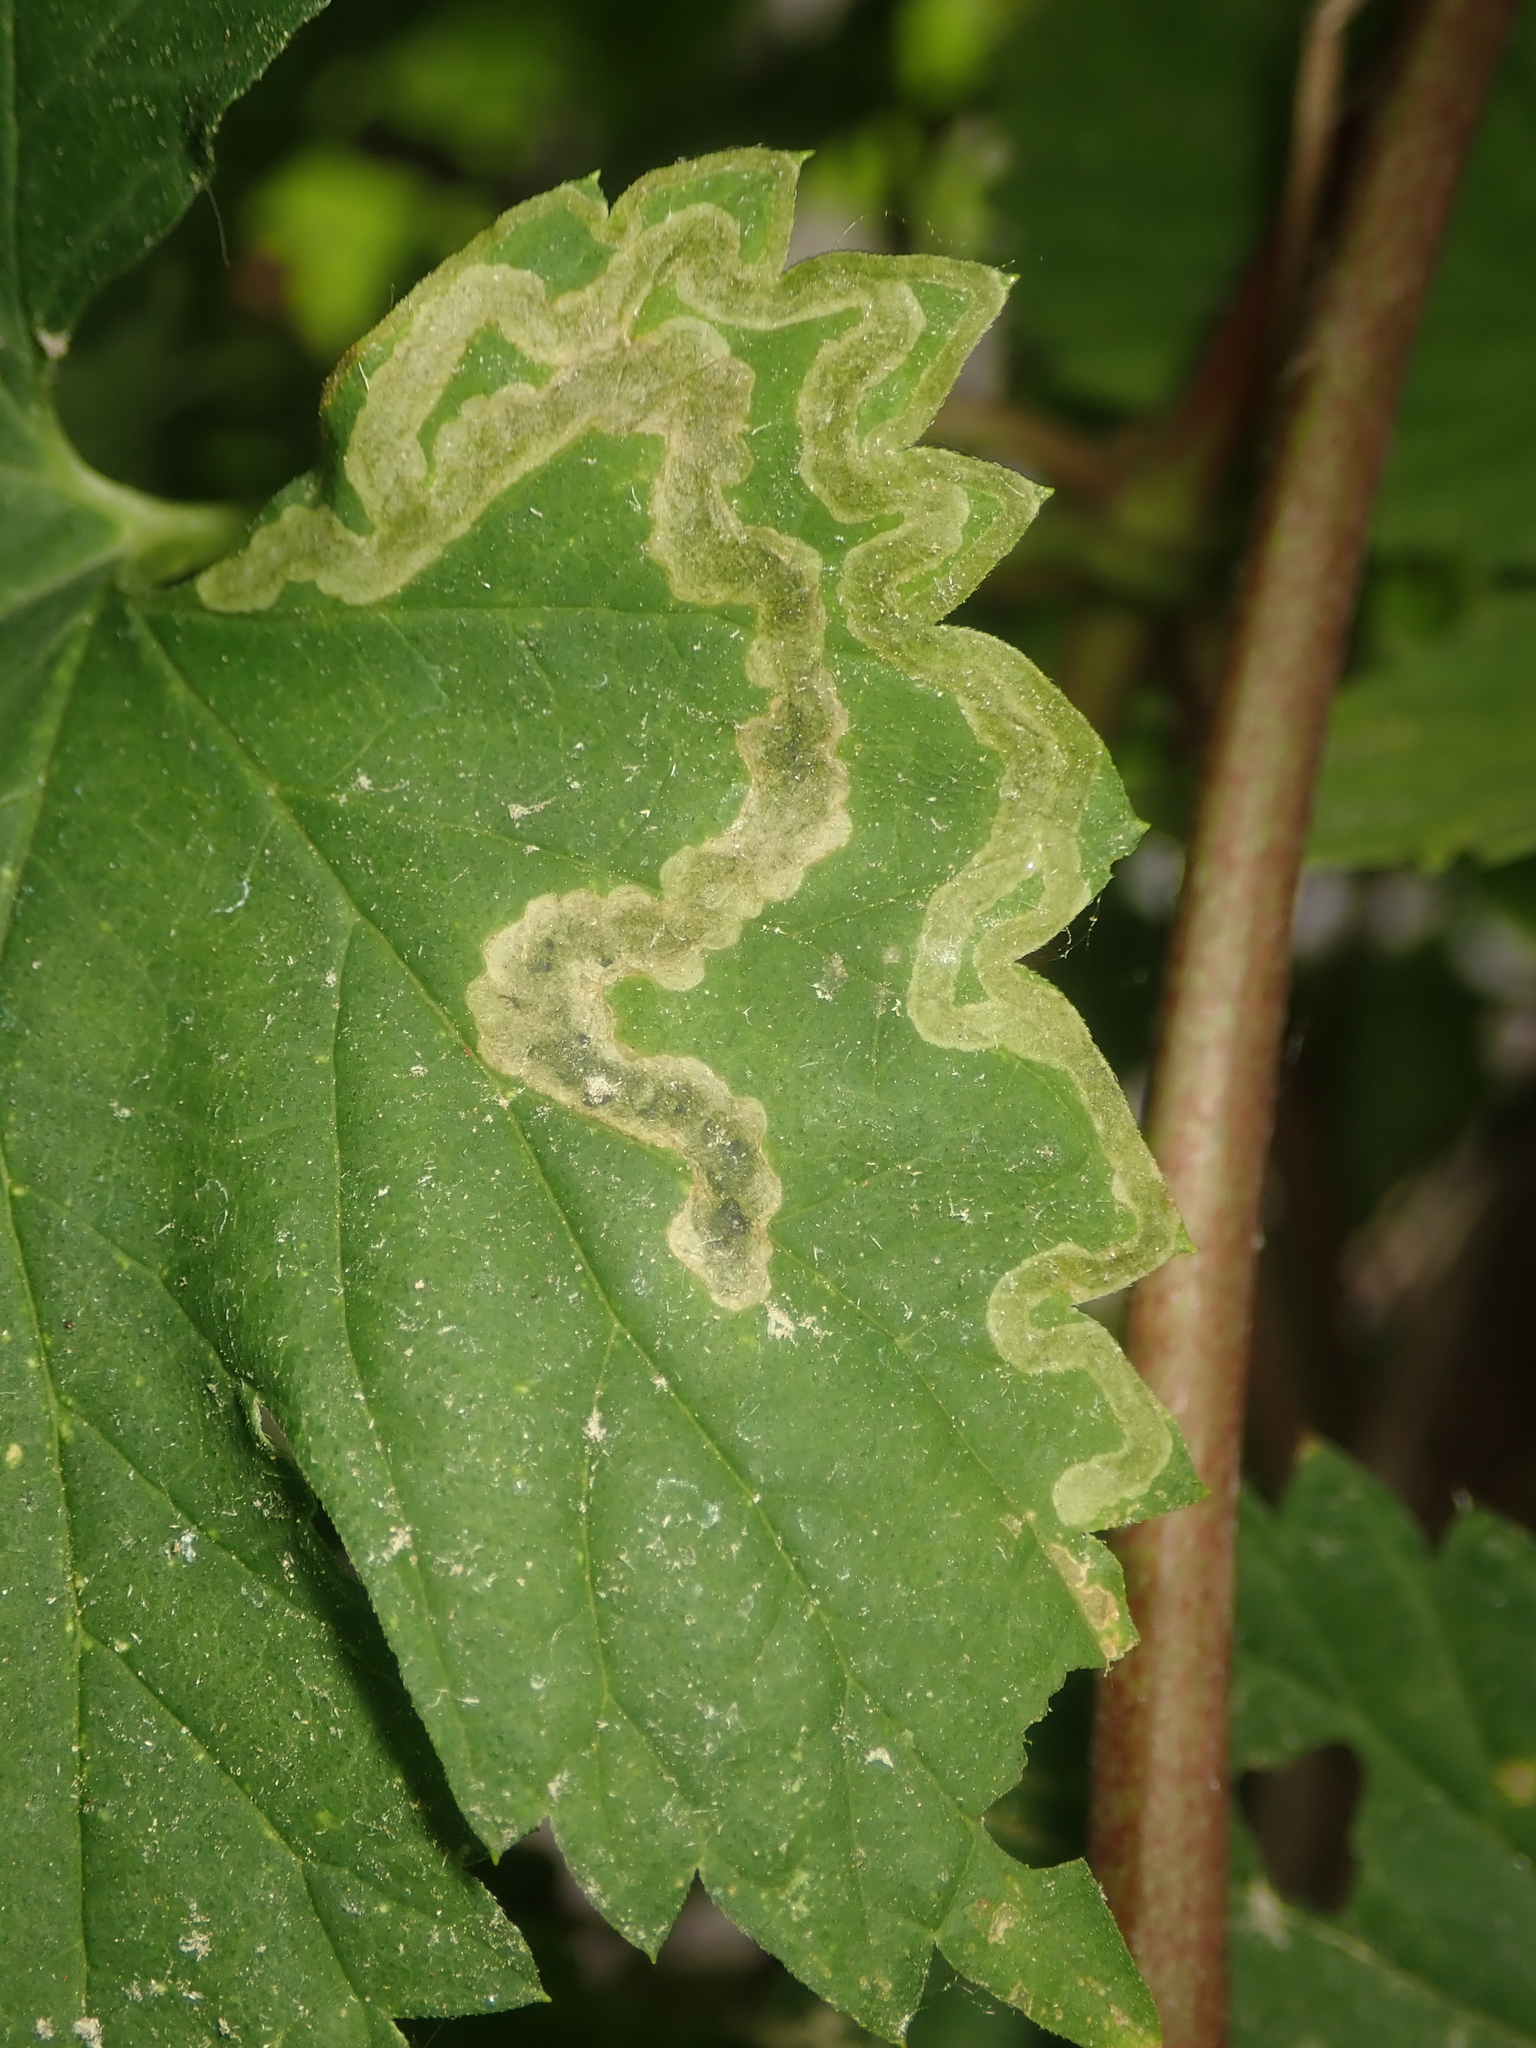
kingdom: Animalia
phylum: Arthropoda
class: Insecta
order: Diptera
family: Agromyzidae
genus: Agromyza
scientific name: Agromyza flaviceps
